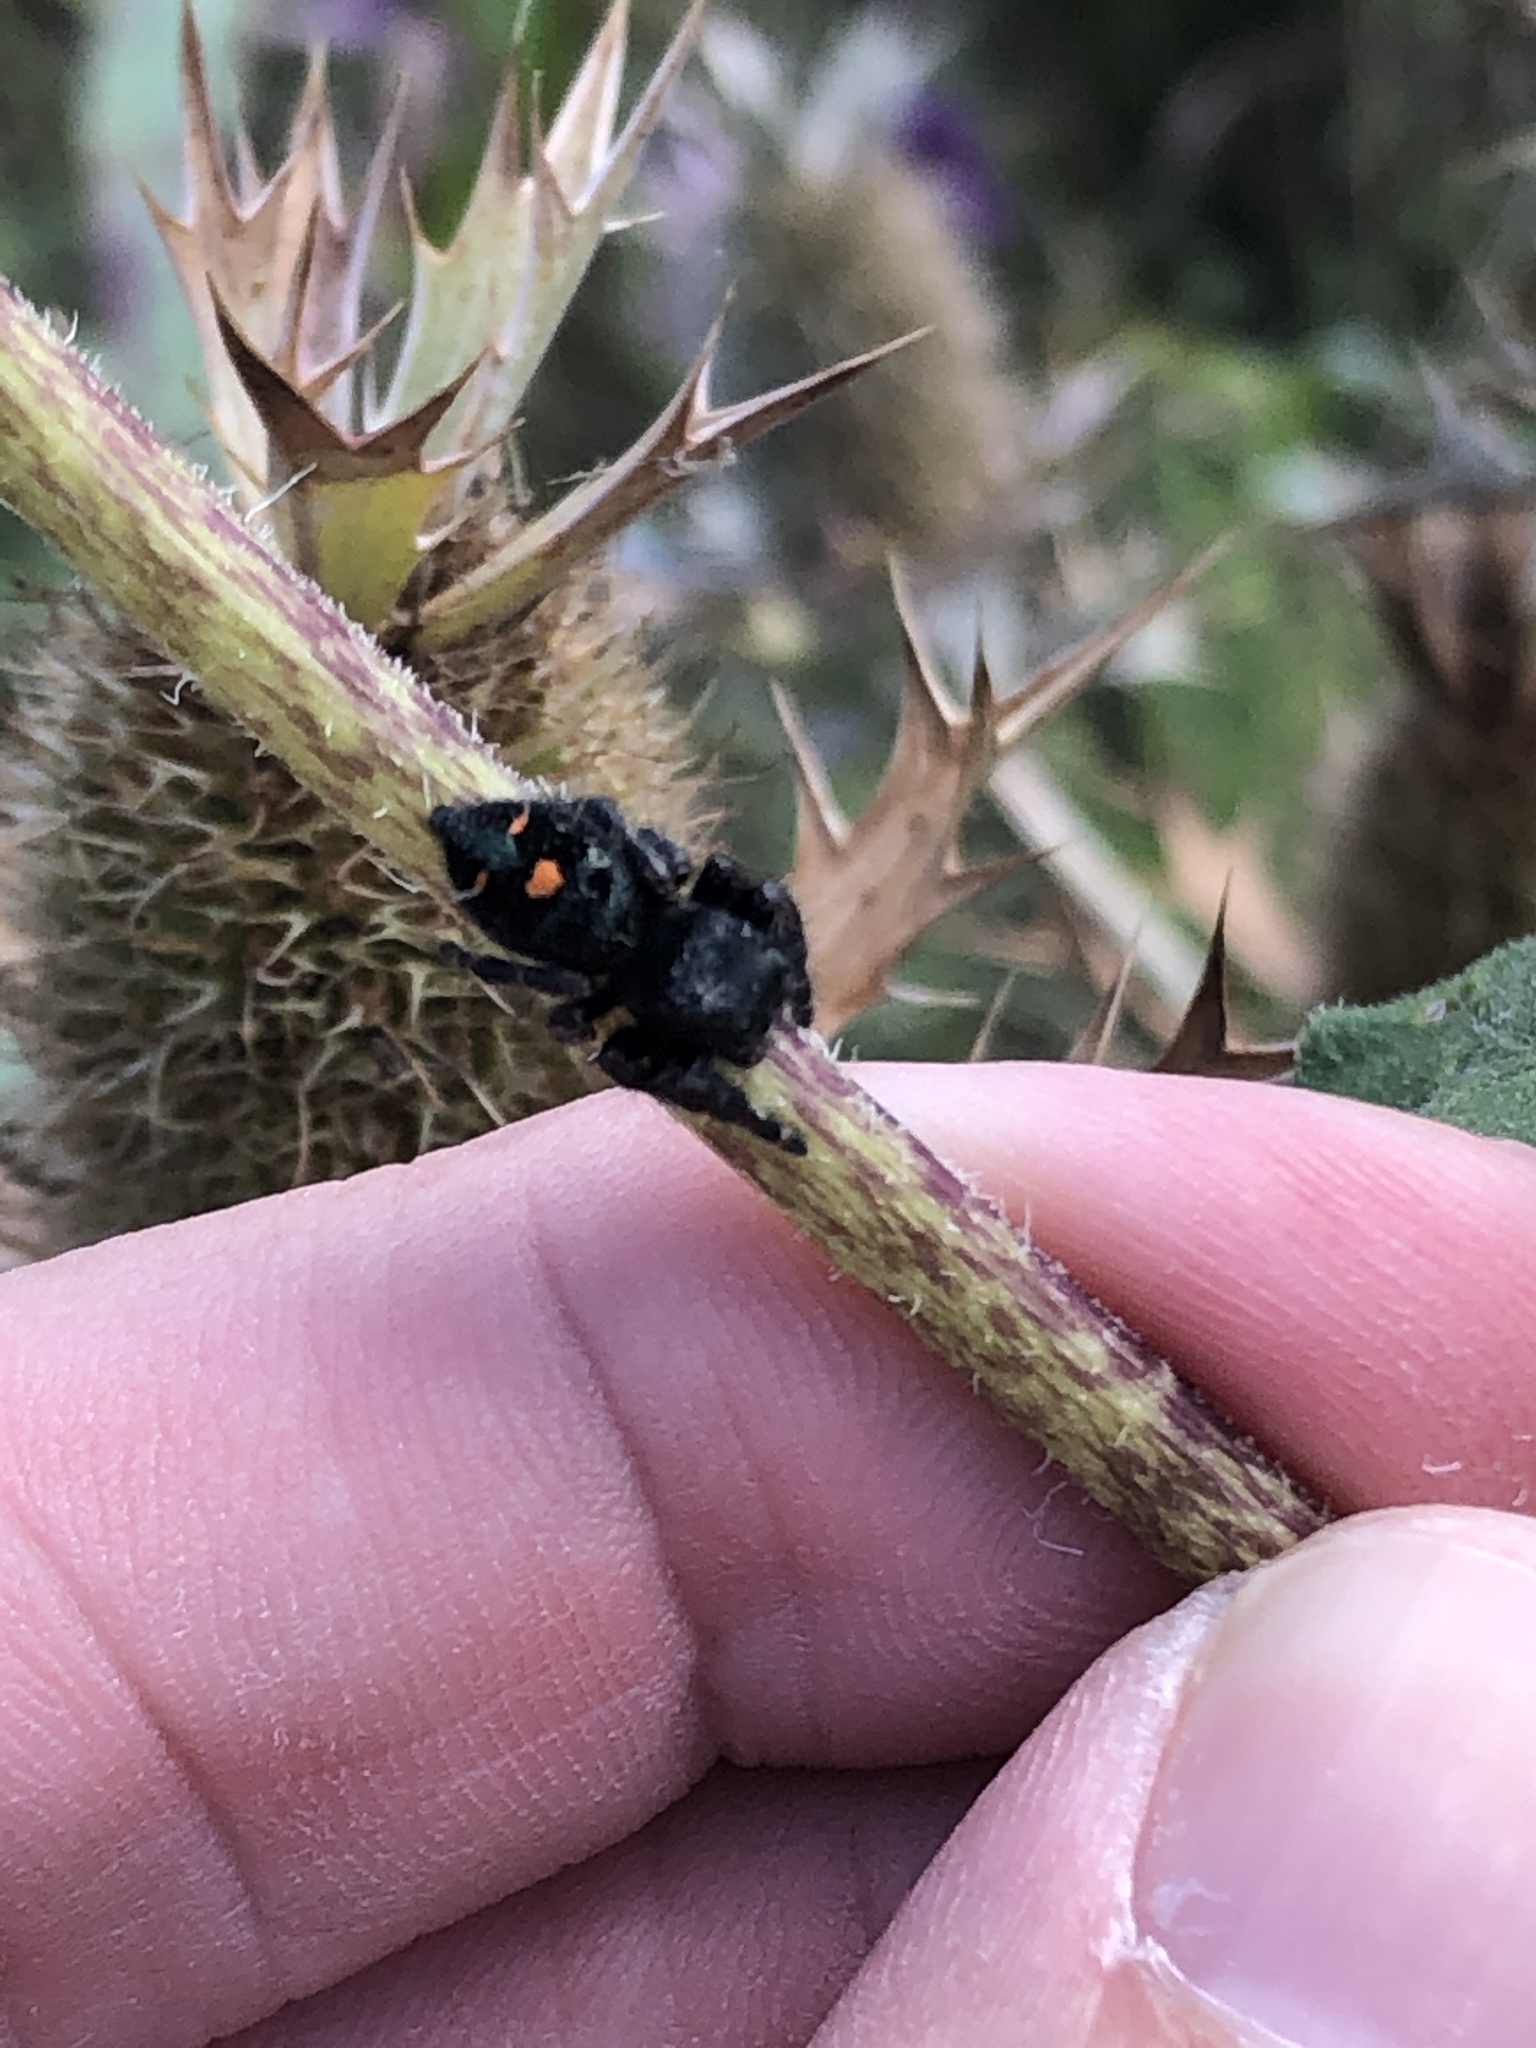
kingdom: Animalia
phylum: Arthropoda
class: Arachnida
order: Araneae
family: Salticidae
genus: Phidippus
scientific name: Phidippus audax
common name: Bold jumper
